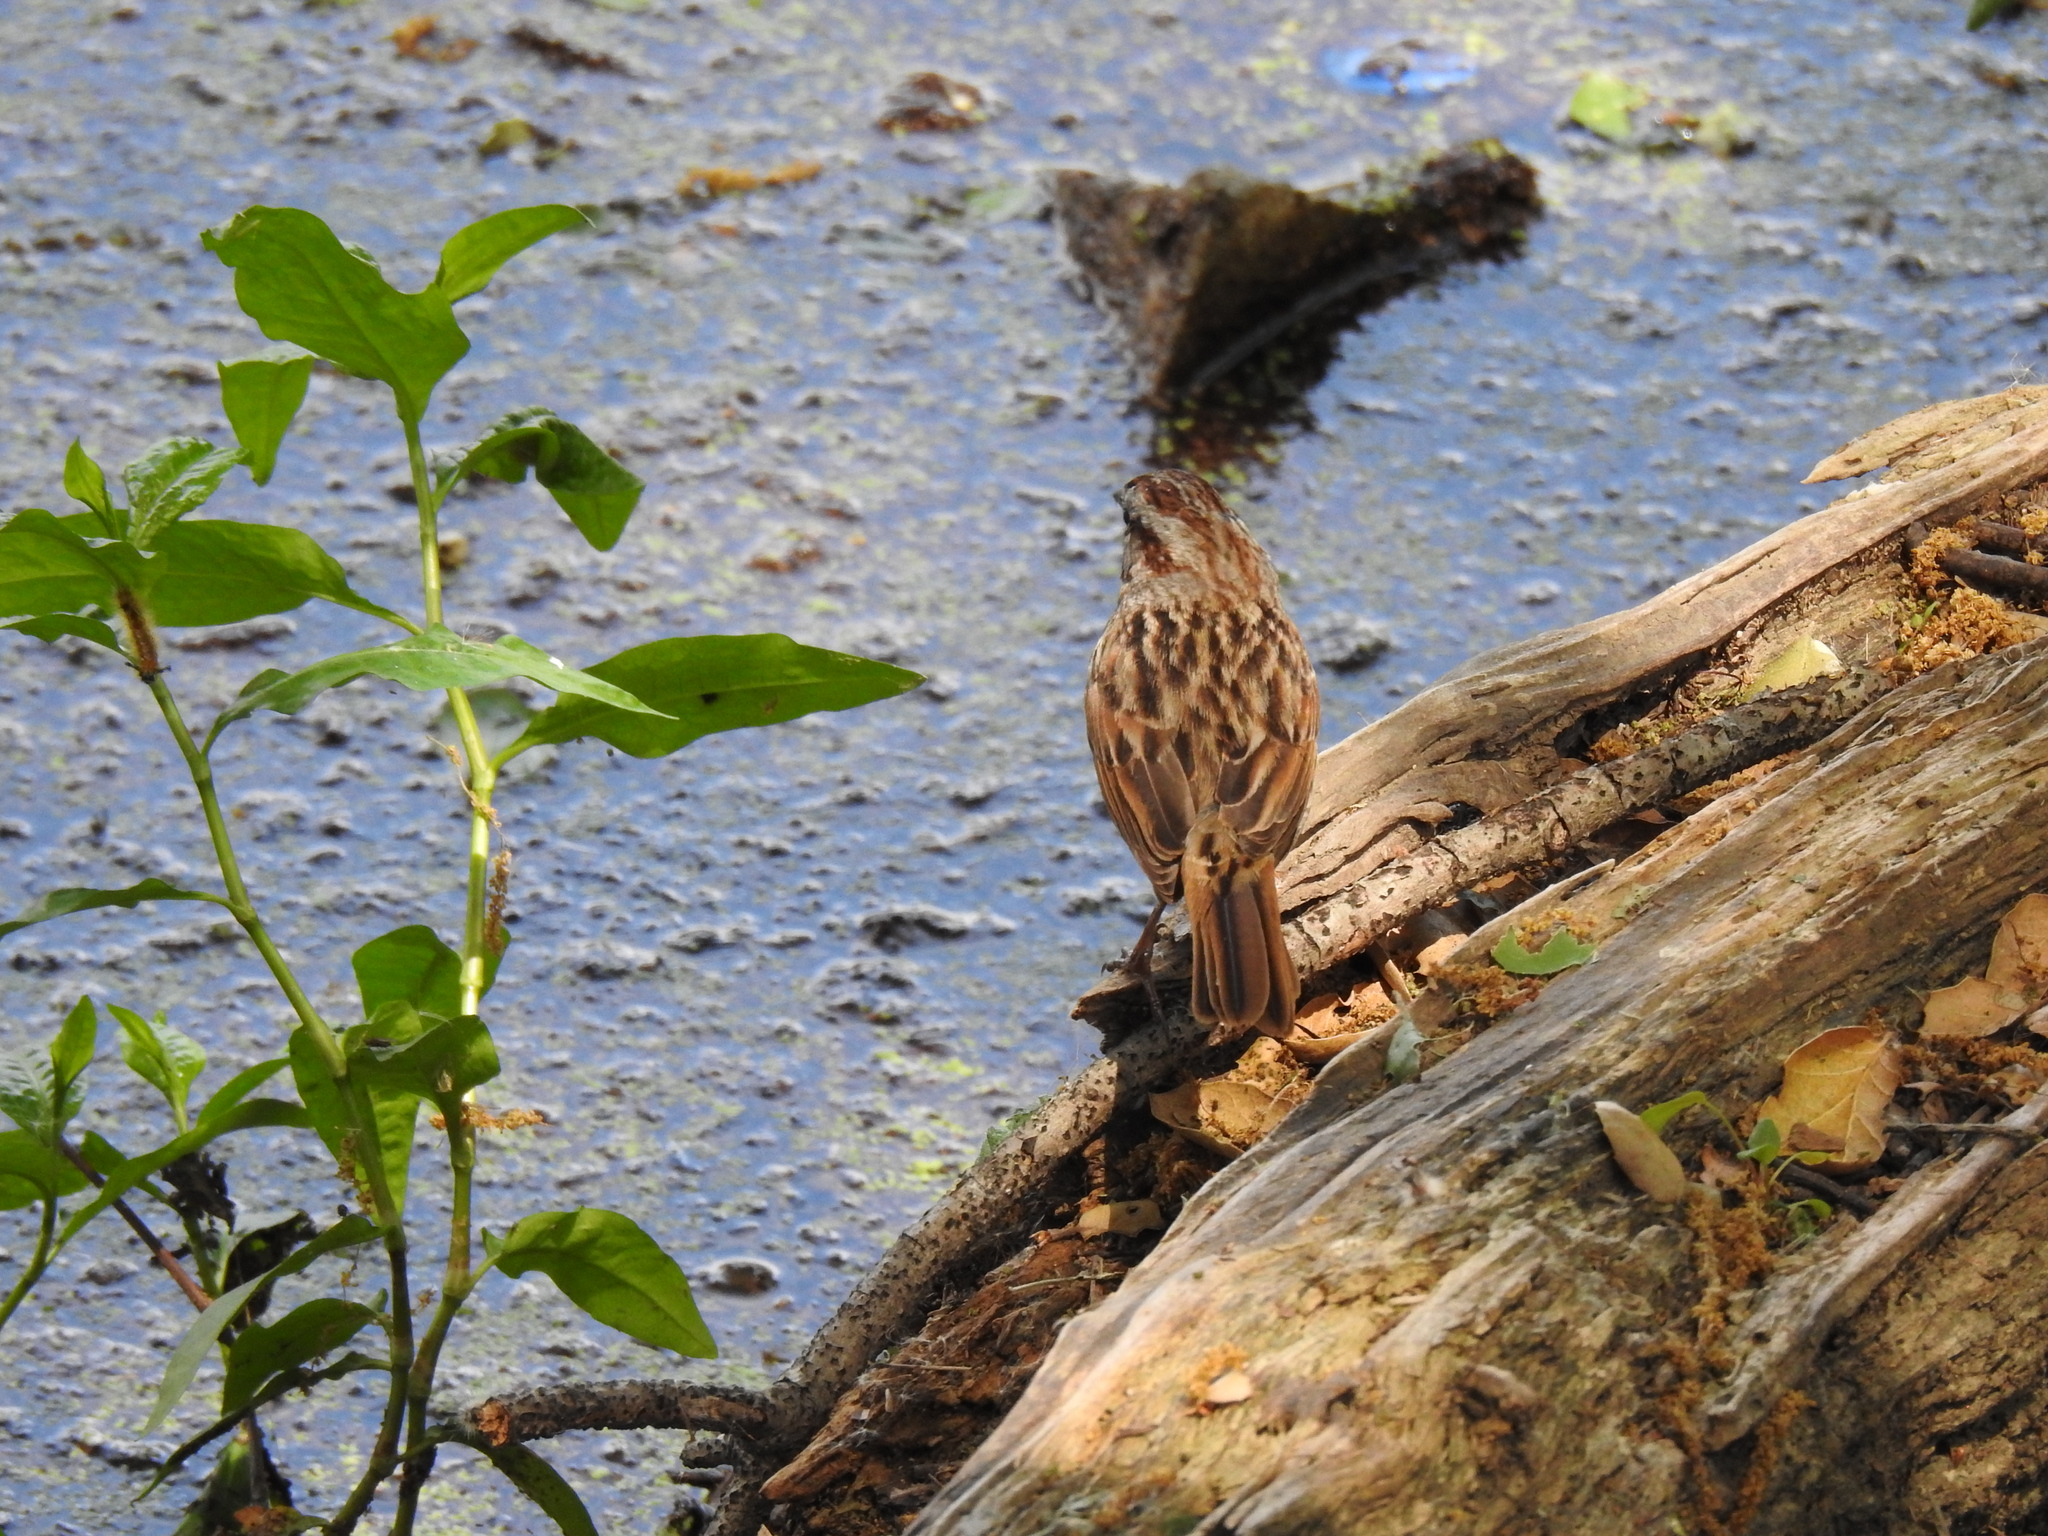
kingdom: Animalia
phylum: Chordata
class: Aves
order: Passeriformes
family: Passerellidae
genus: Melospiza
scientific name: Melospiza melodia
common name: Song sparrow
